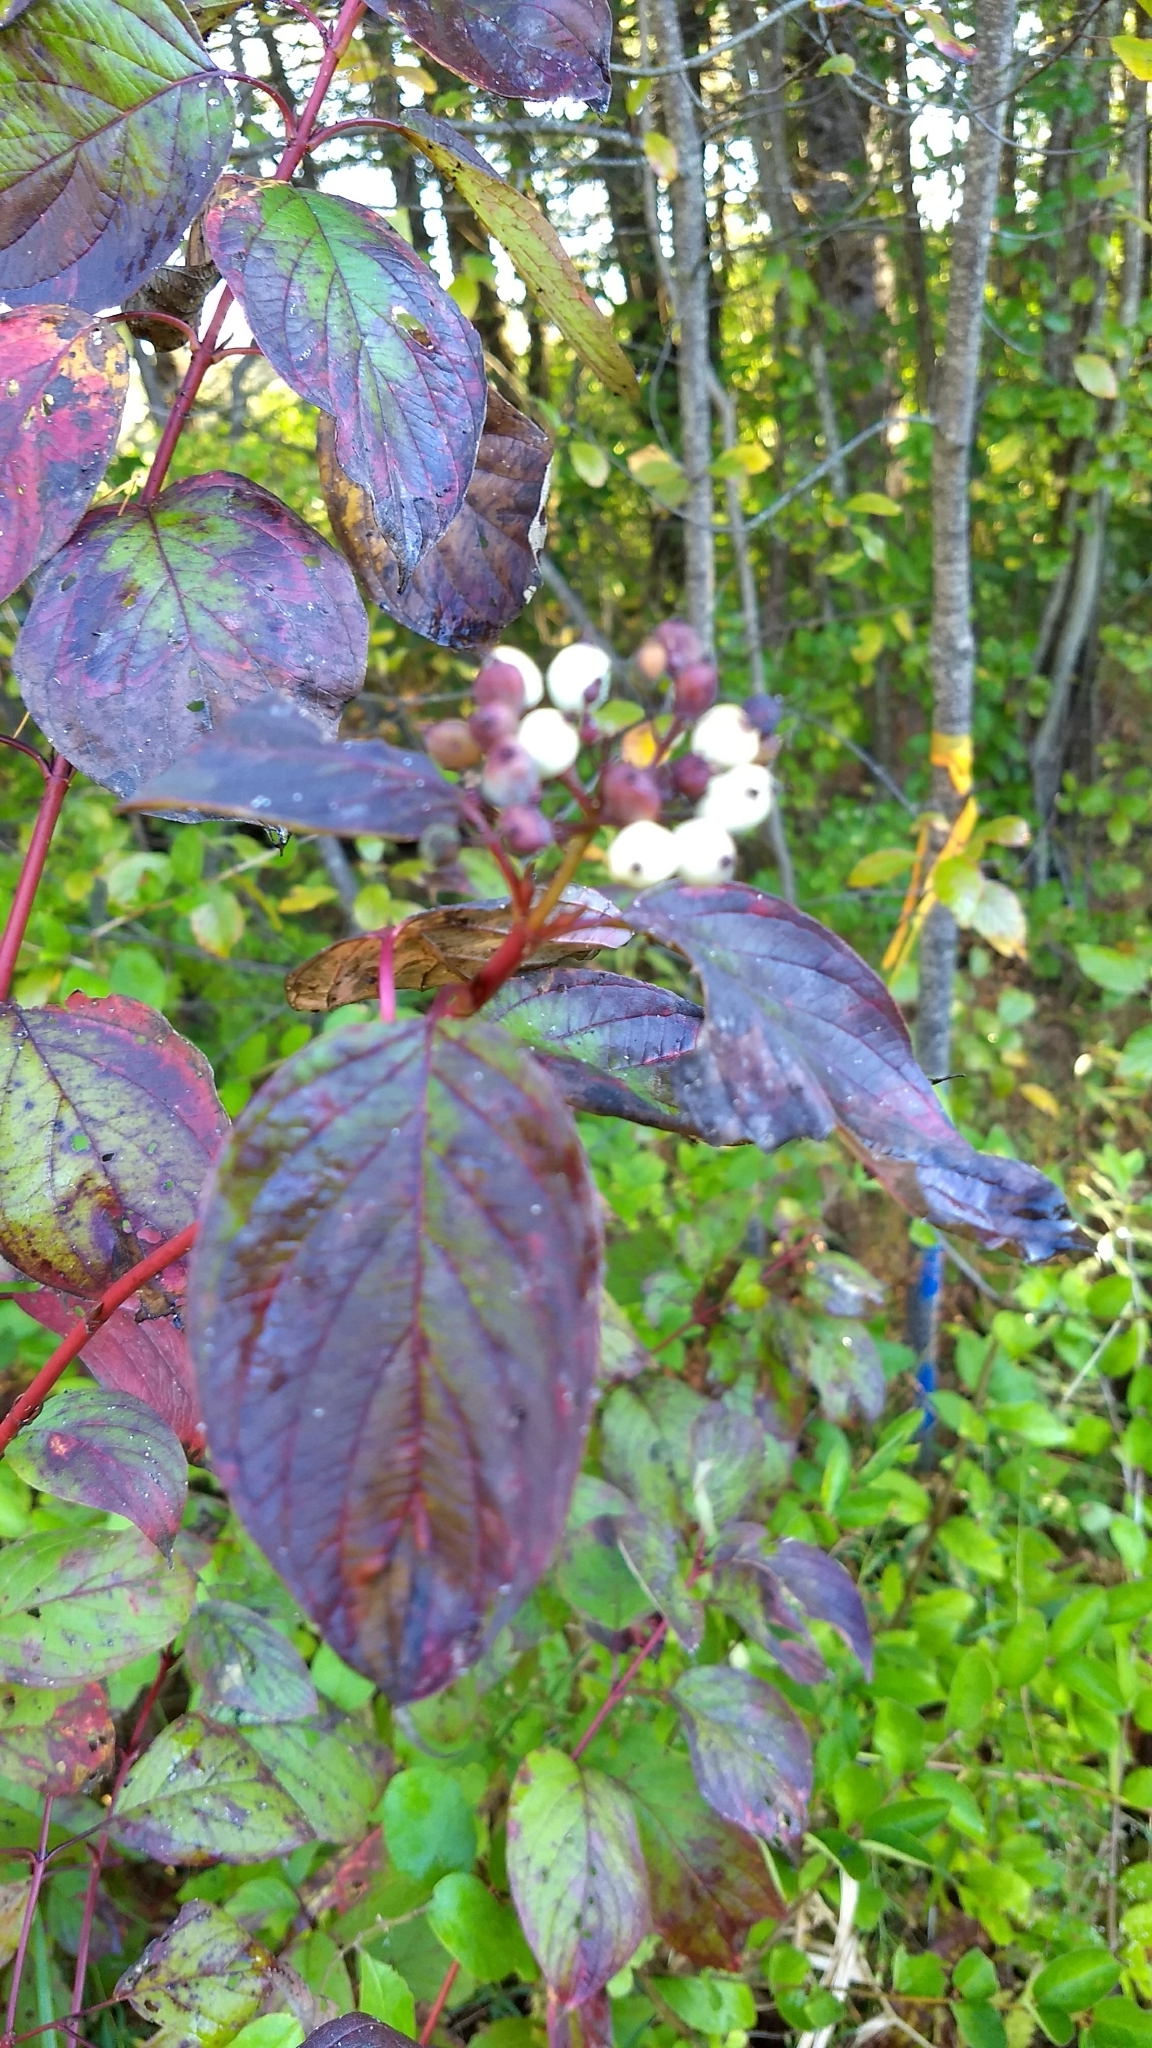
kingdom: Plantae
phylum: Tracheophyta
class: Magnoliopsida
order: Cornales
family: Cornaceae
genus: Cornus
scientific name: Cornus sericea
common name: Red-osier dogwood
